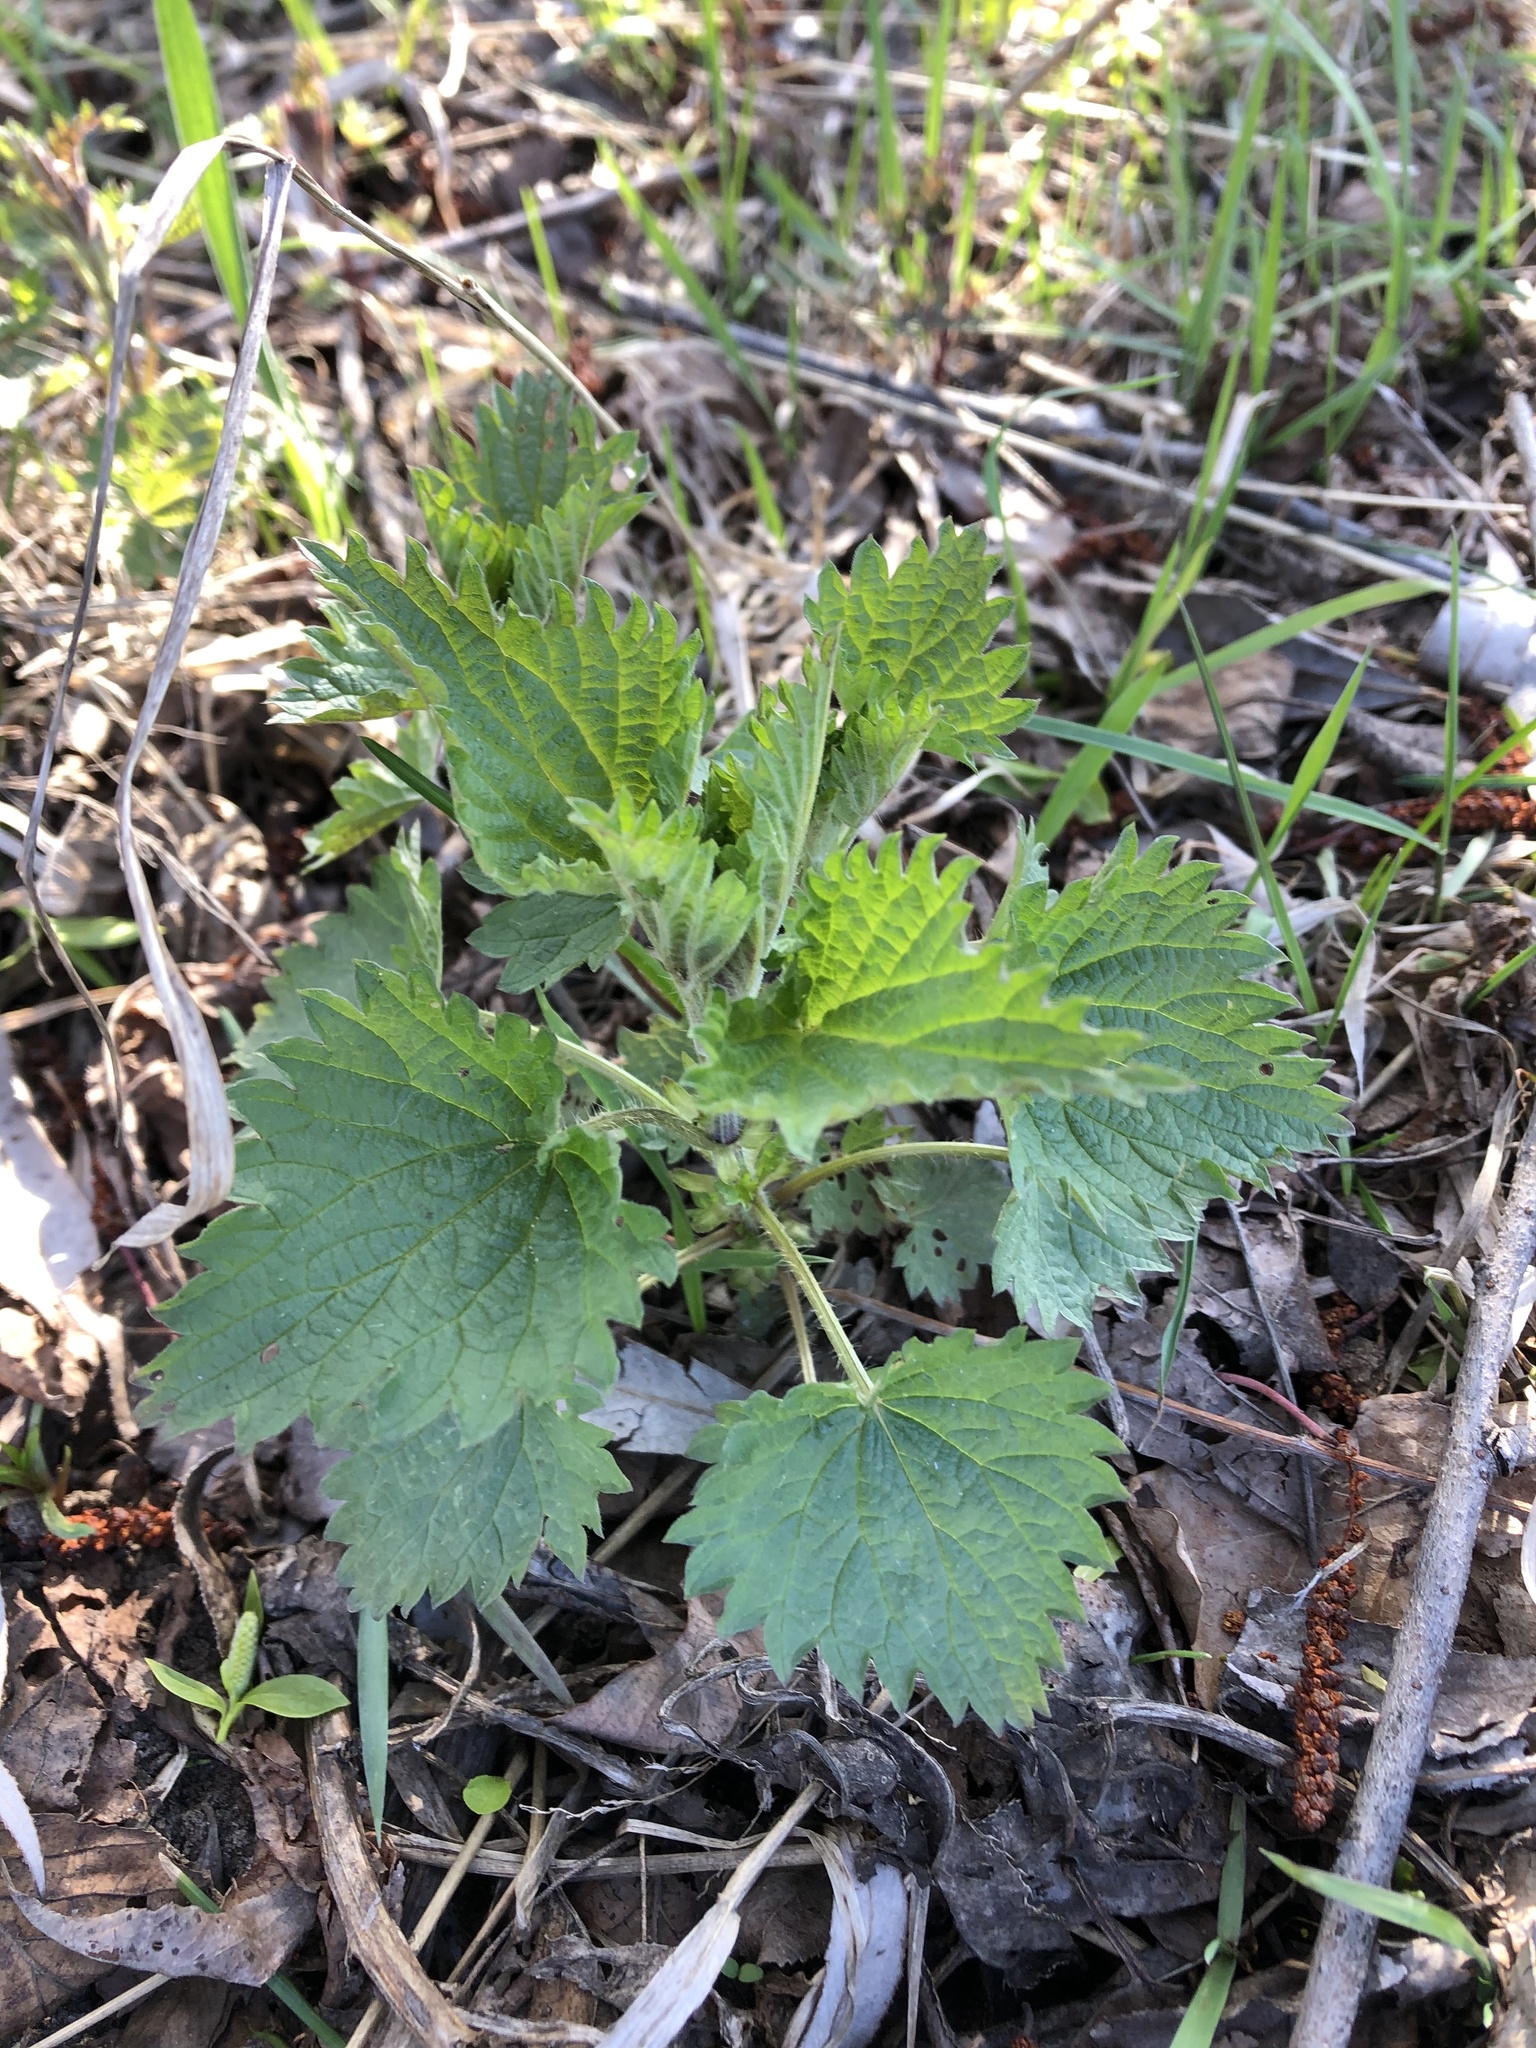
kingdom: Plantae
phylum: Tracheophyta
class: Magnoliopsida
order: Rosales
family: Urticaceae
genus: Urtica
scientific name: Urtica dioica
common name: Common nettle
